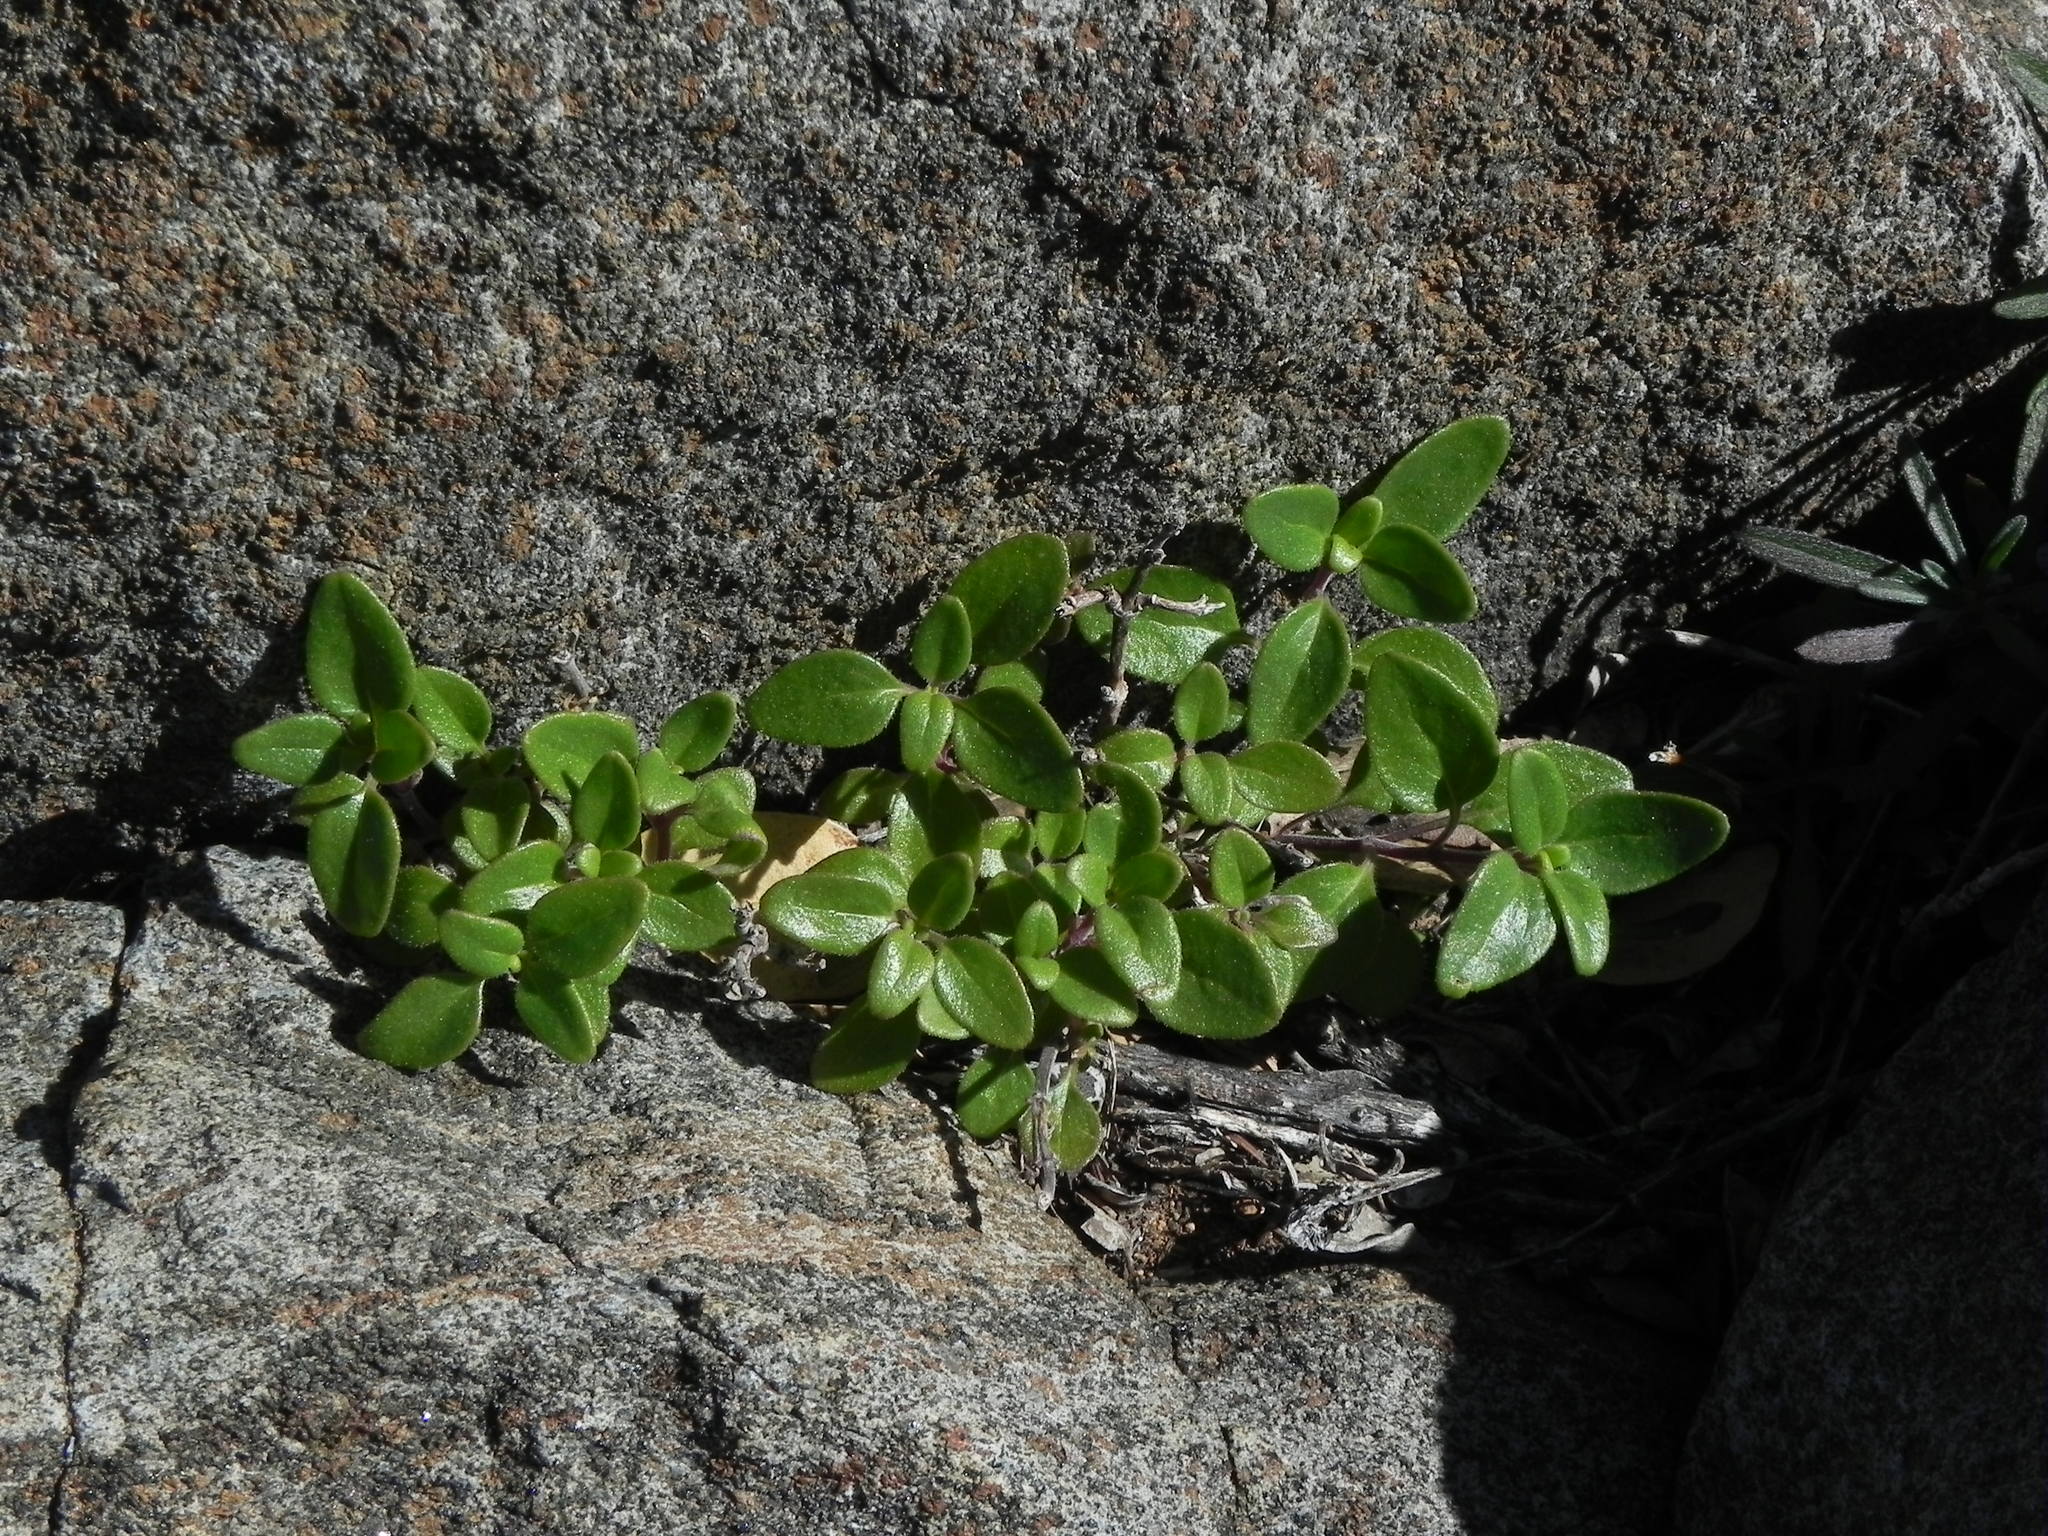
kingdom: Plantae
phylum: Tracheophyta
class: Magnoliopsida
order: Lamiales
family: Lamiaceae
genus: Monardella
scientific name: Monardella macrantha
